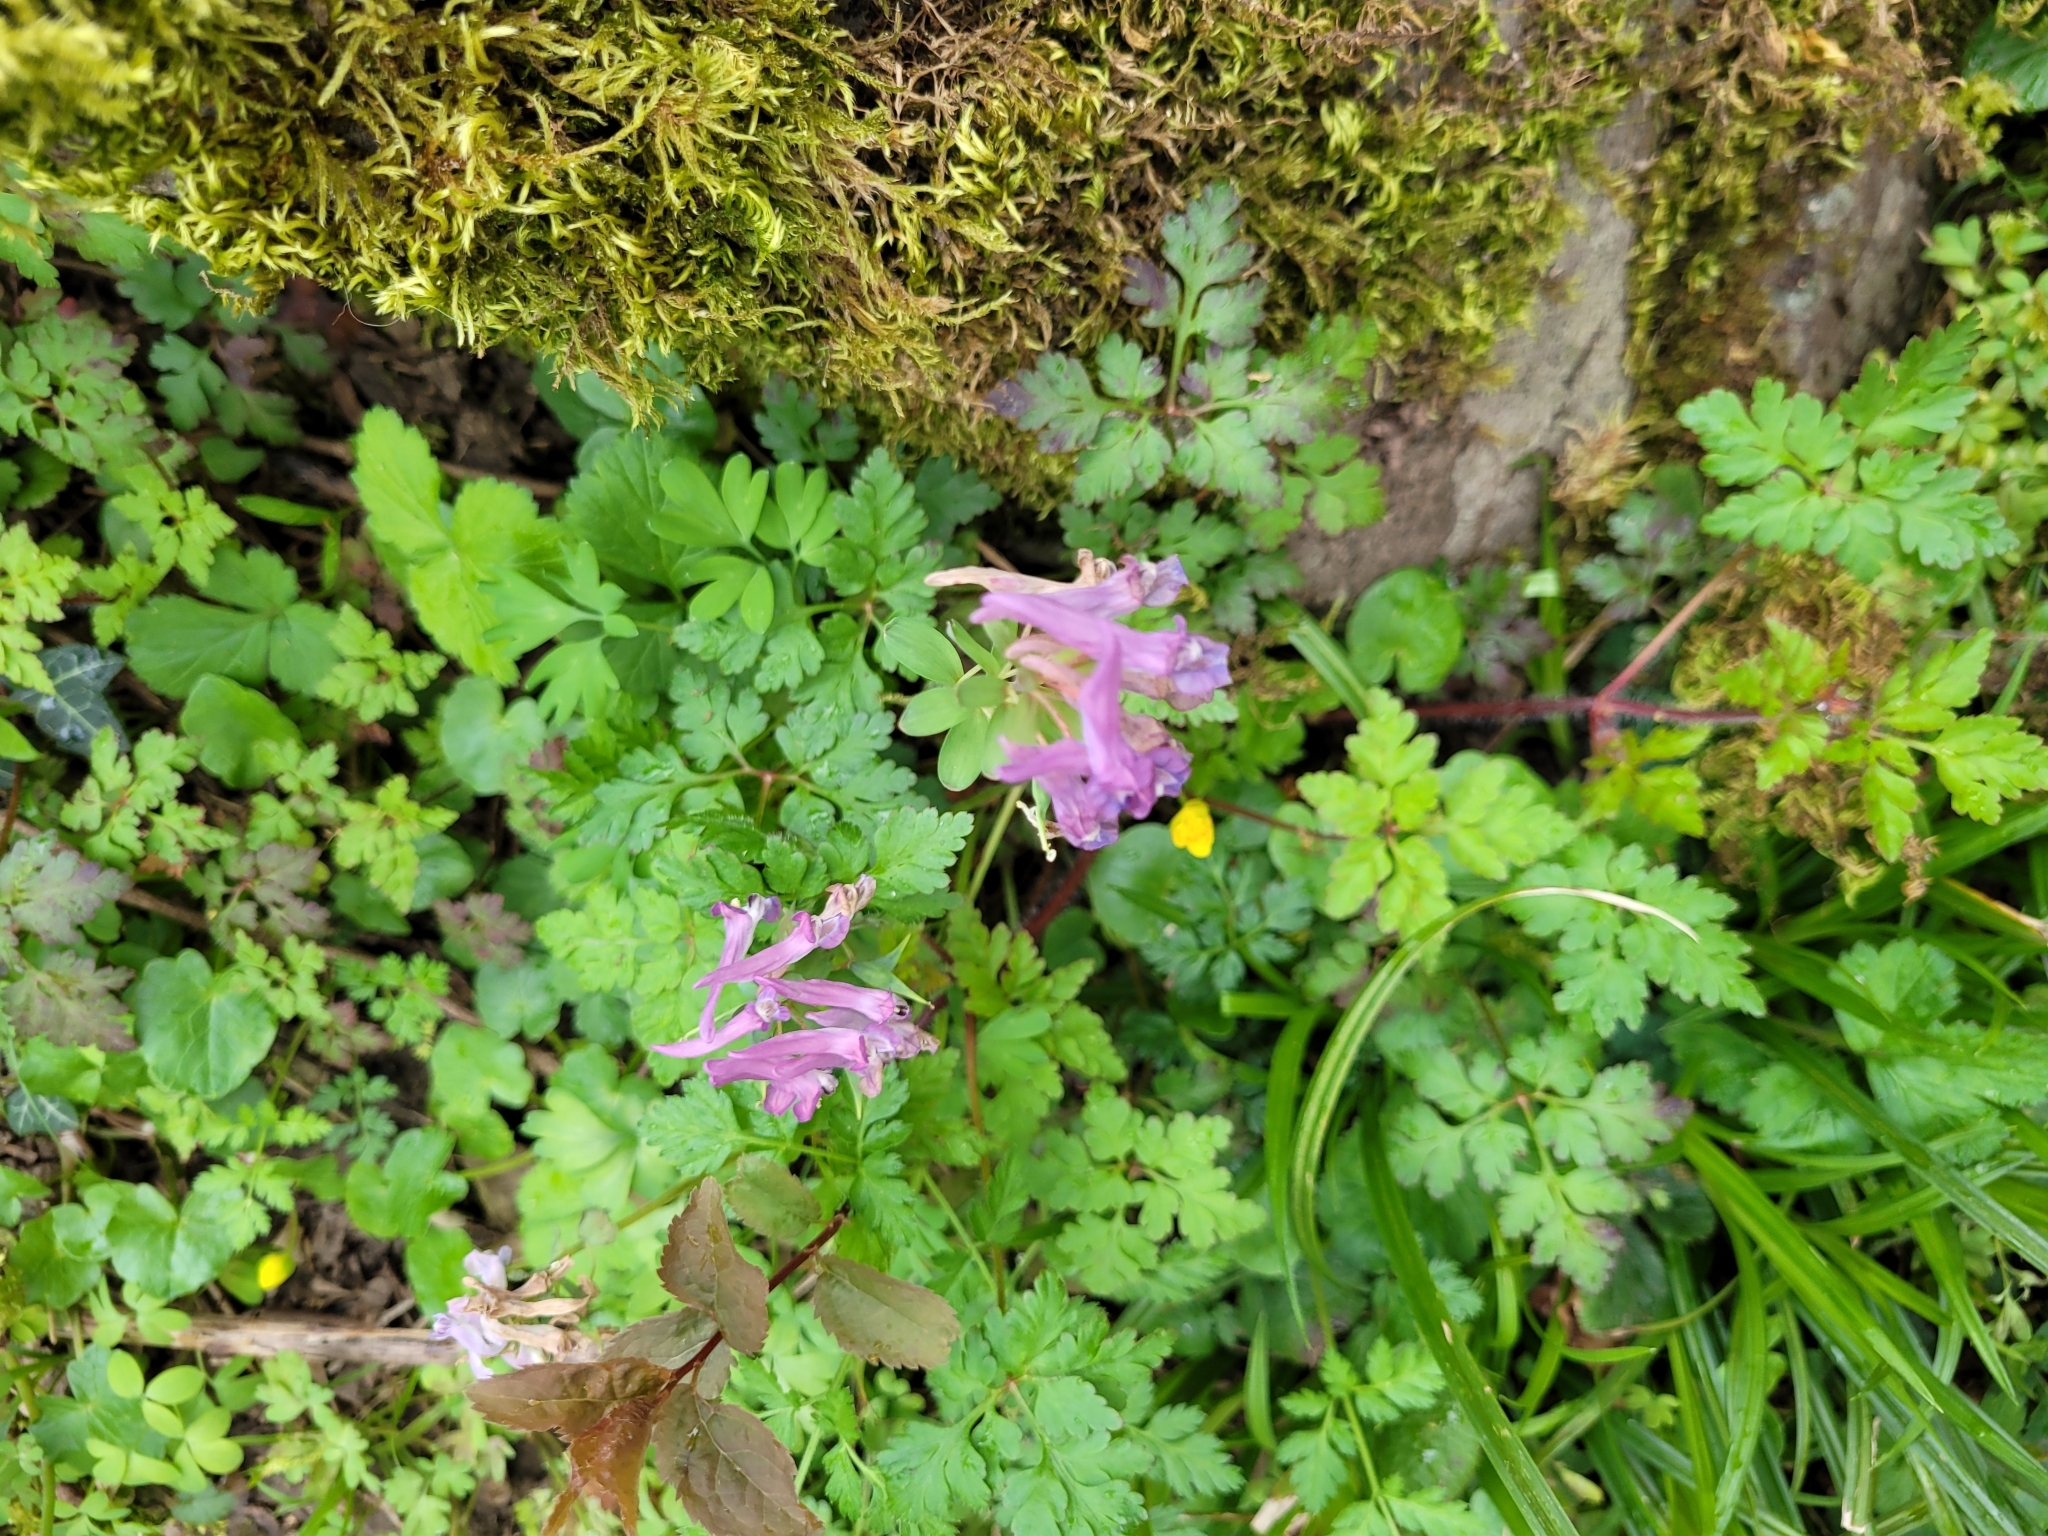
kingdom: Plantae
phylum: Tracheophyta
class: Magnoliopsida
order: Ranunculales
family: Papaveraceae
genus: Corydalis
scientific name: Corydalis solida
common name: Bird-in-a-bush
